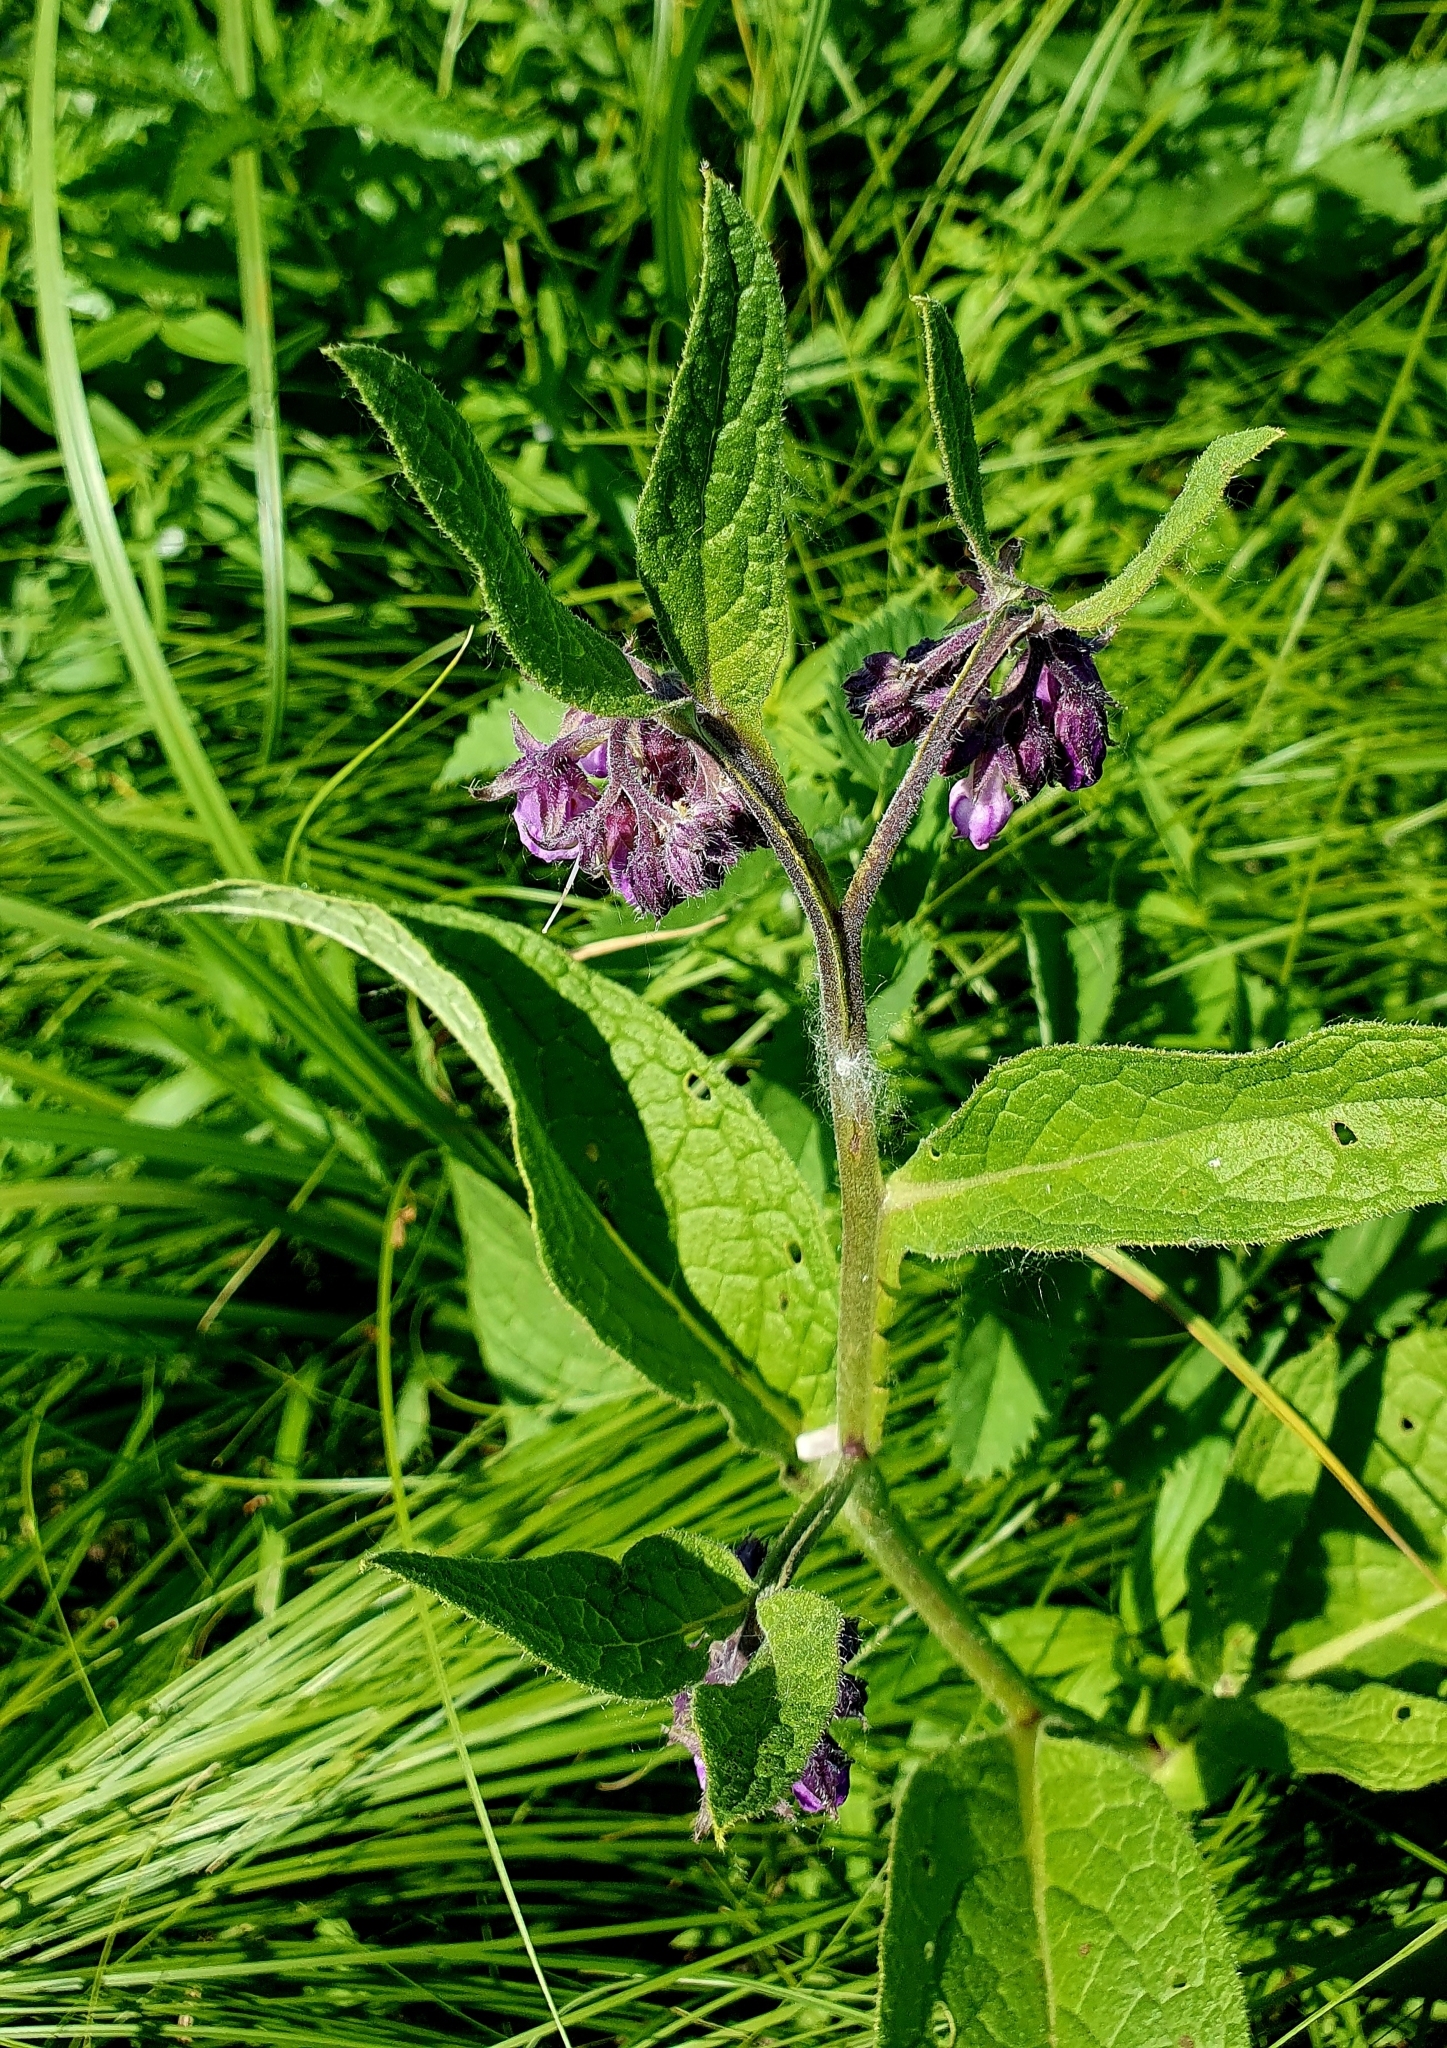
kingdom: Plantae
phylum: Tracheophyta
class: Magnoliopsida
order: Boraginales
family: Boraginaceae
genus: Symphytum
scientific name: Symphytum officinale
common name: Common comfrey
